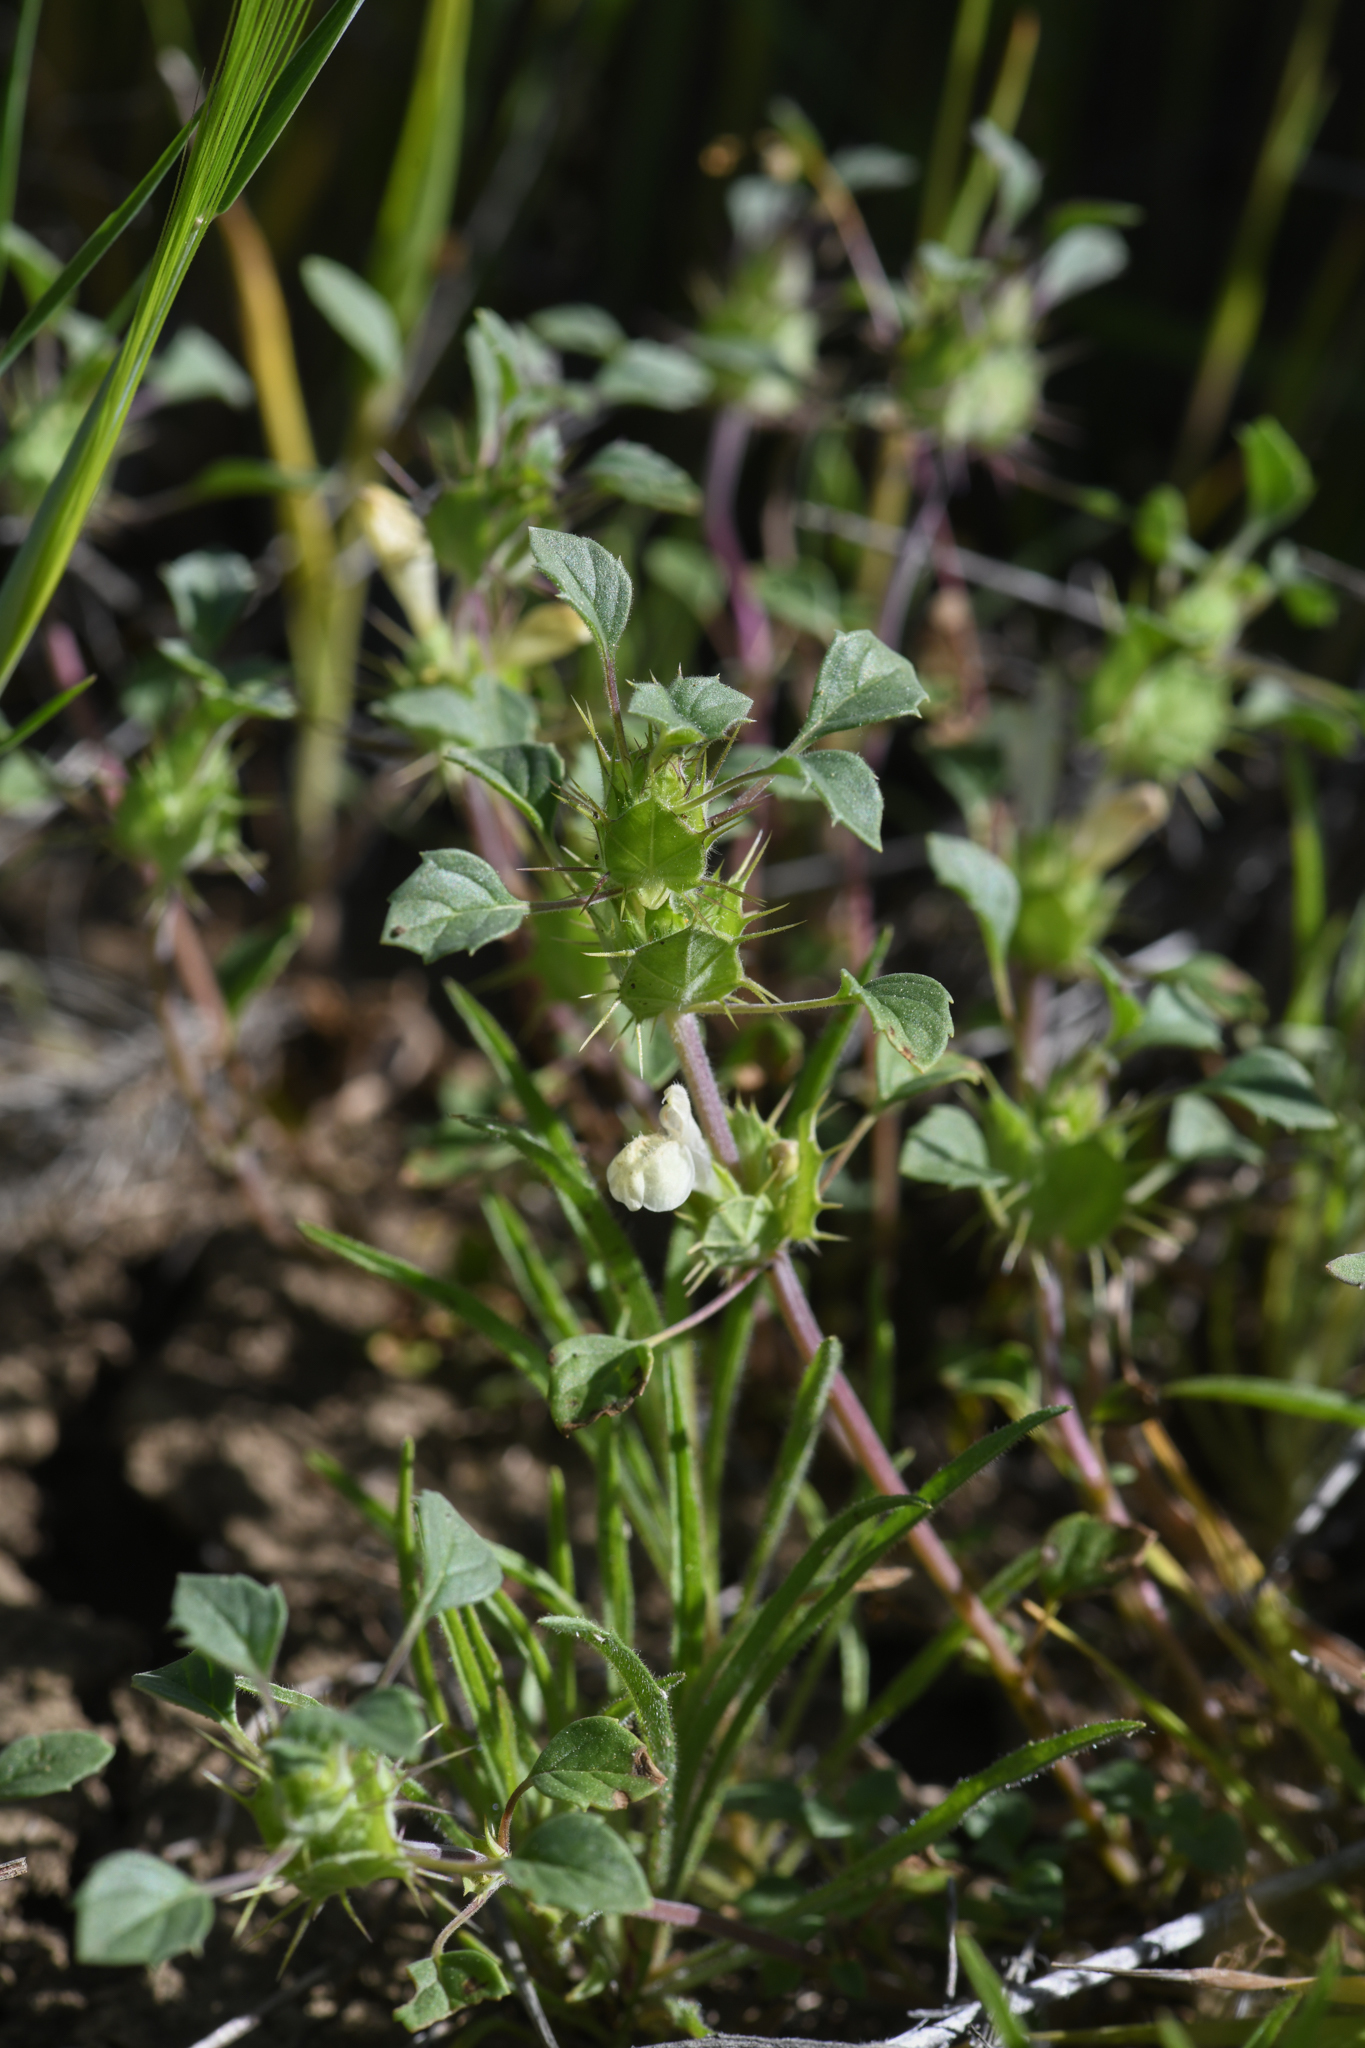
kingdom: Plantae
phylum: Tracheophyta
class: Magnoliopsida
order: Lamiales
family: Lamiaceae
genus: Acanthomintha
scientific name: Acanthomintha obovata
